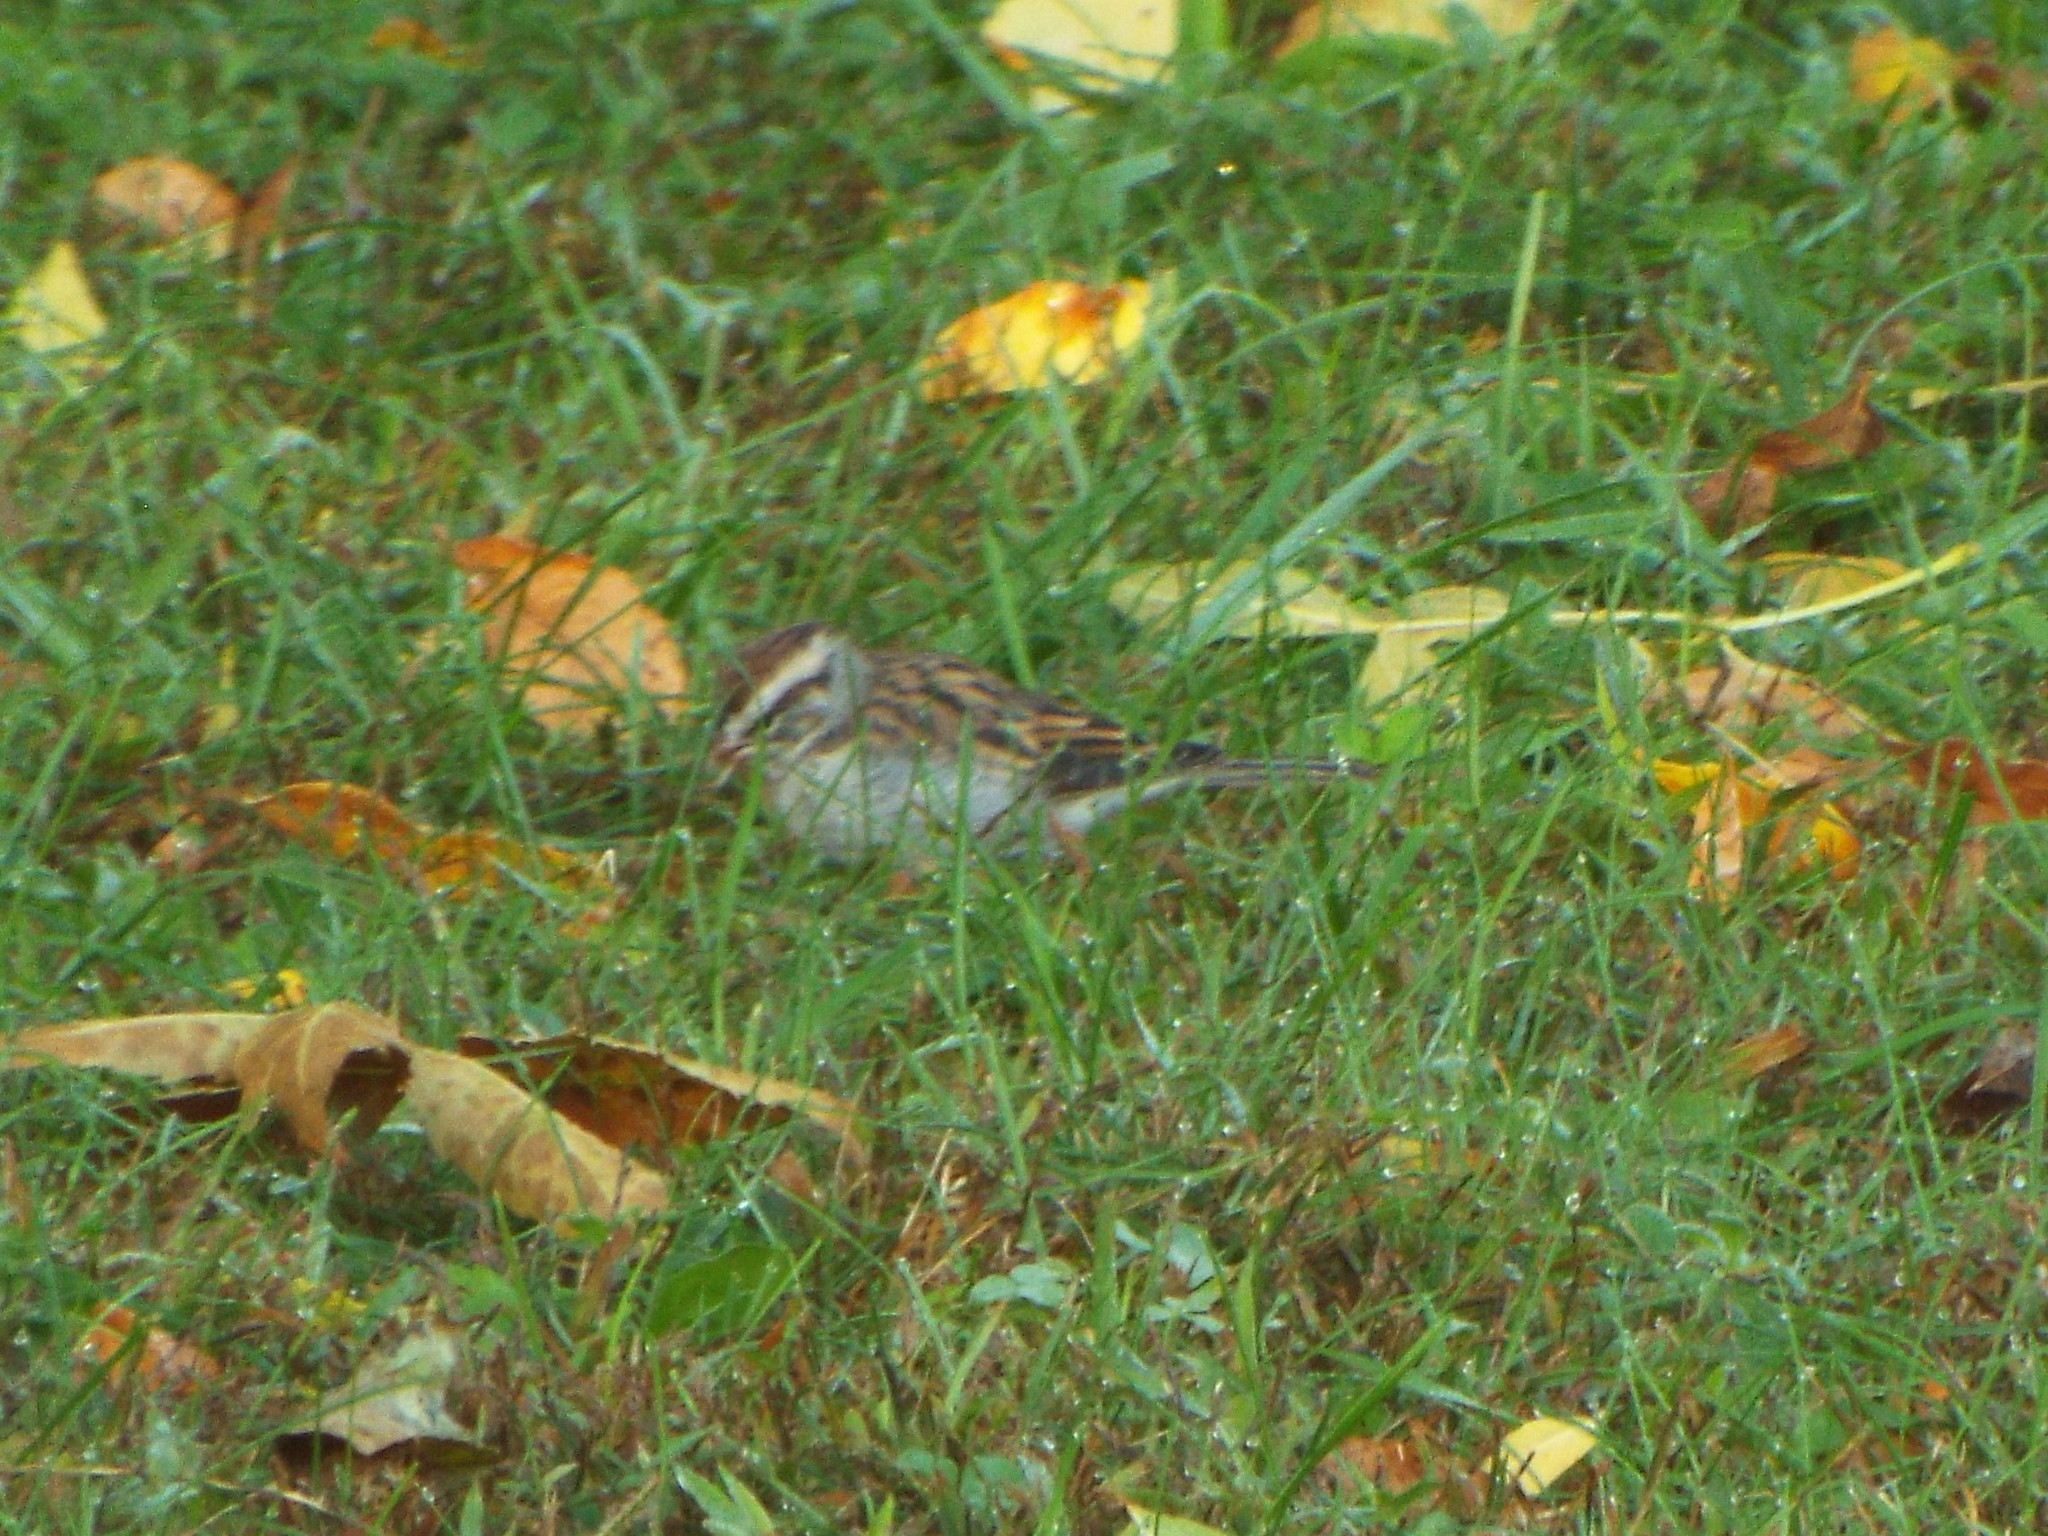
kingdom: Animalia
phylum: Chordata
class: Aves
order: Passeriformes
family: Passerellidae
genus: Spizella
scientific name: Spizella passerina
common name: Chipping sparrow
